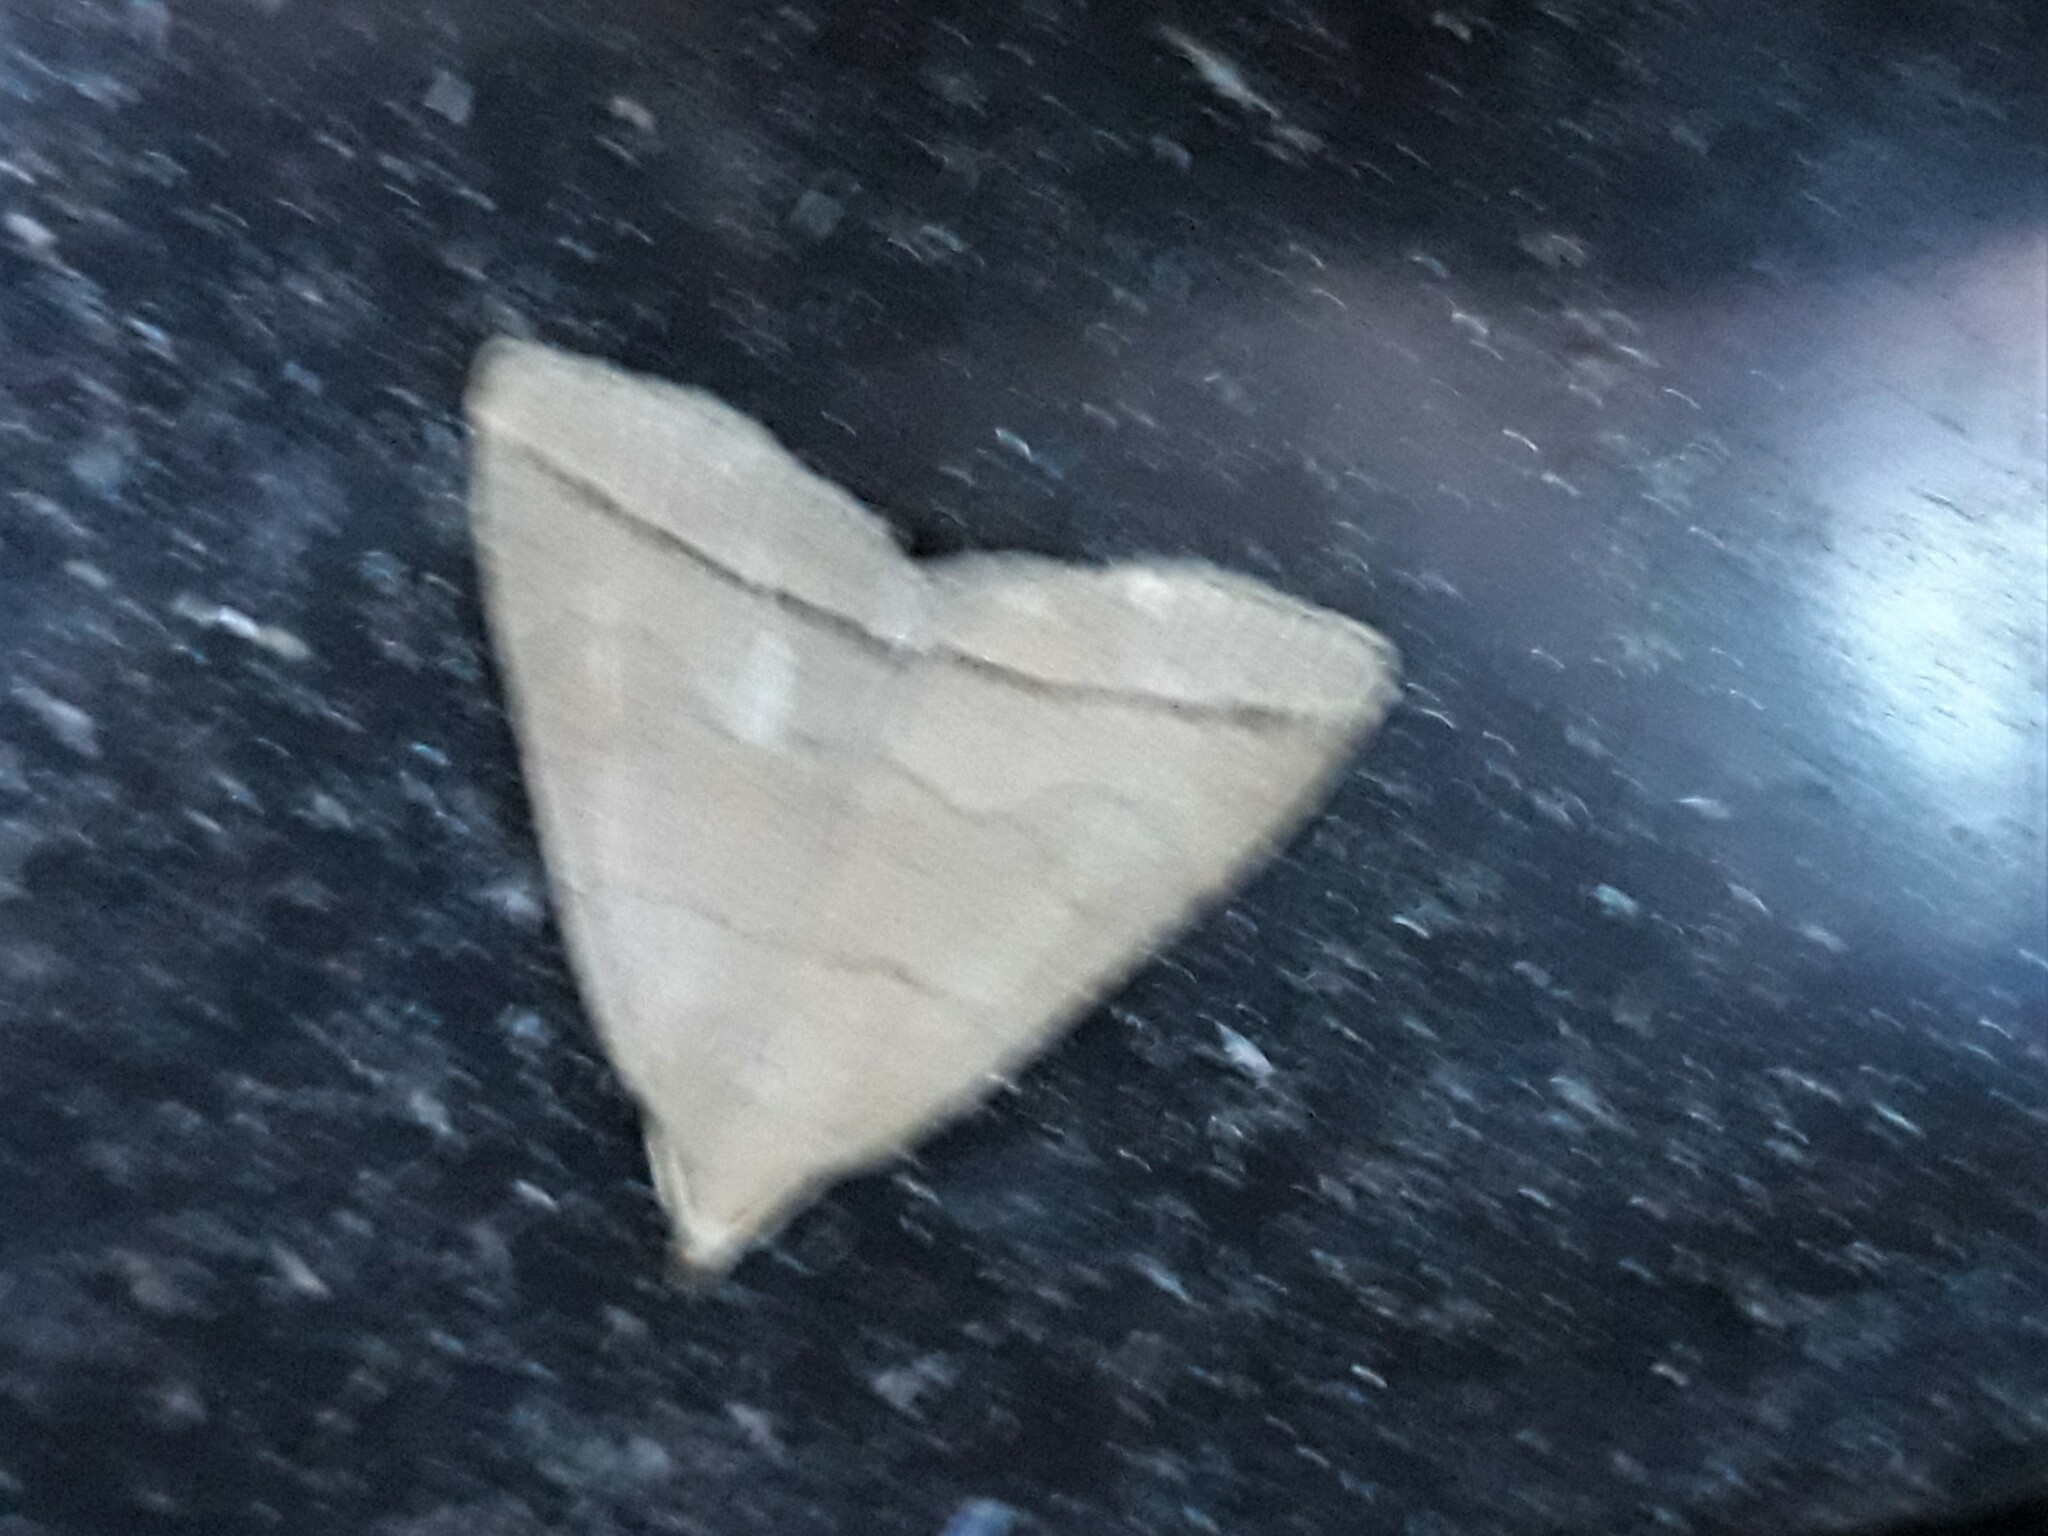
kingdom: Animalia
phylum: Arthropoda
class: Insecta
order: Lepidoptera
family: Erebidae
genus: Herminia
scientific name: Herminia tarsipennalis
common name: Fan-foot
